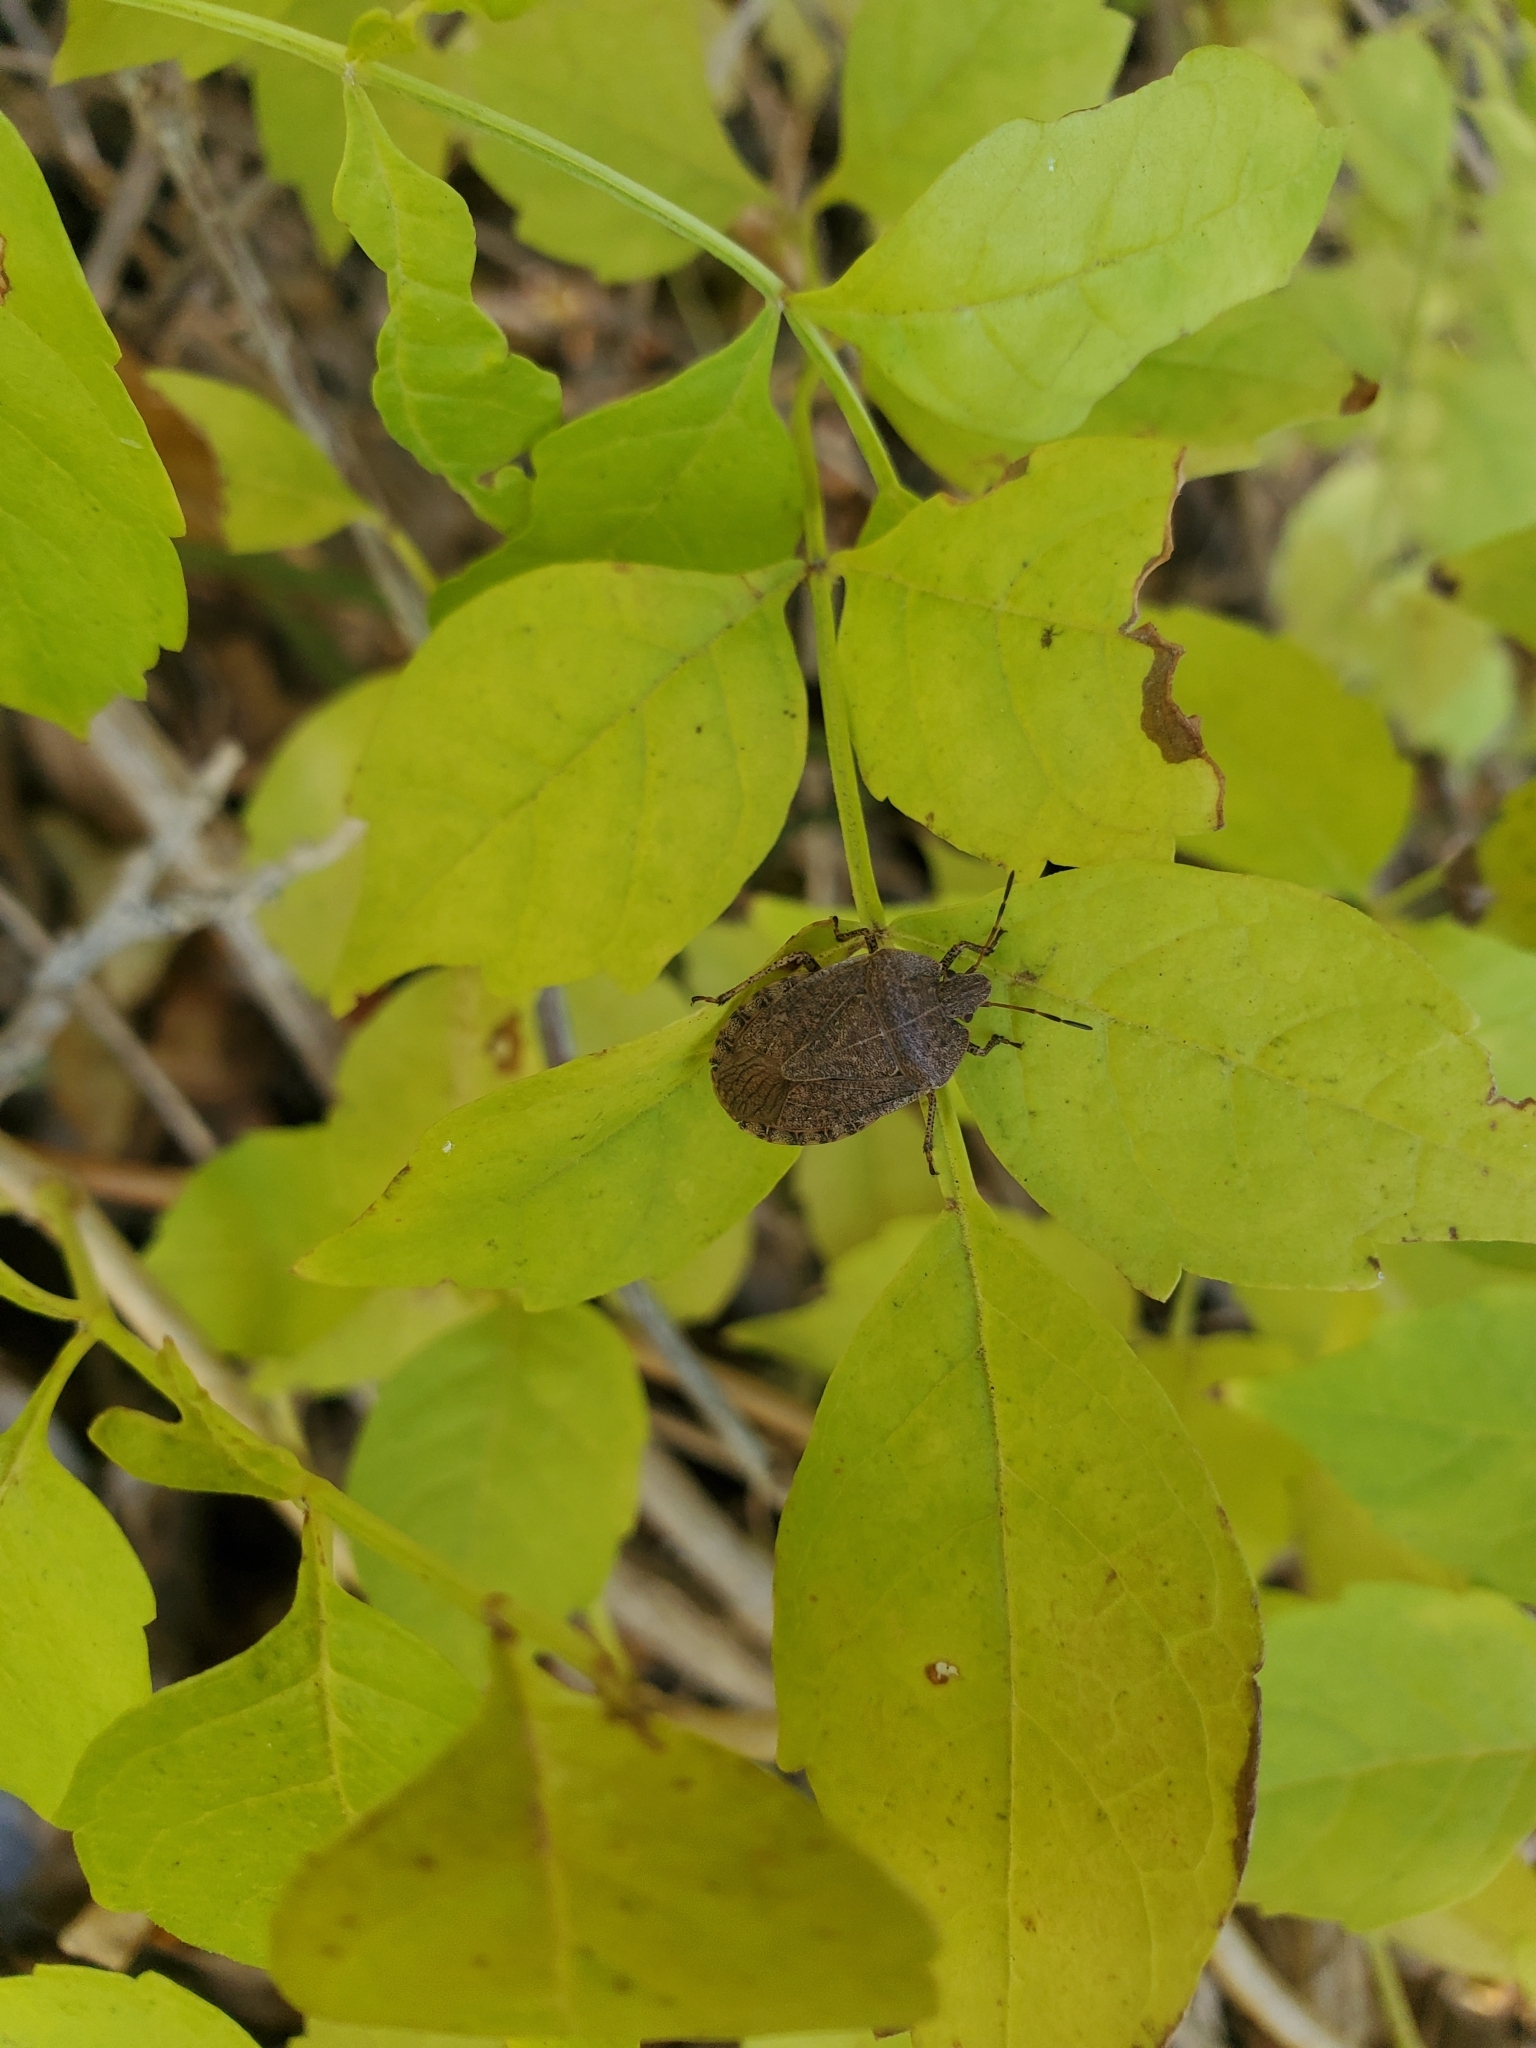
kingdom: Animalia
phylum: Arthropoda
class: Insecta
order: Hemiptera
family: Pentatomidae
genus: Menecles
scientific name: Menecles insertus
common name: Elf shoe stink bug
